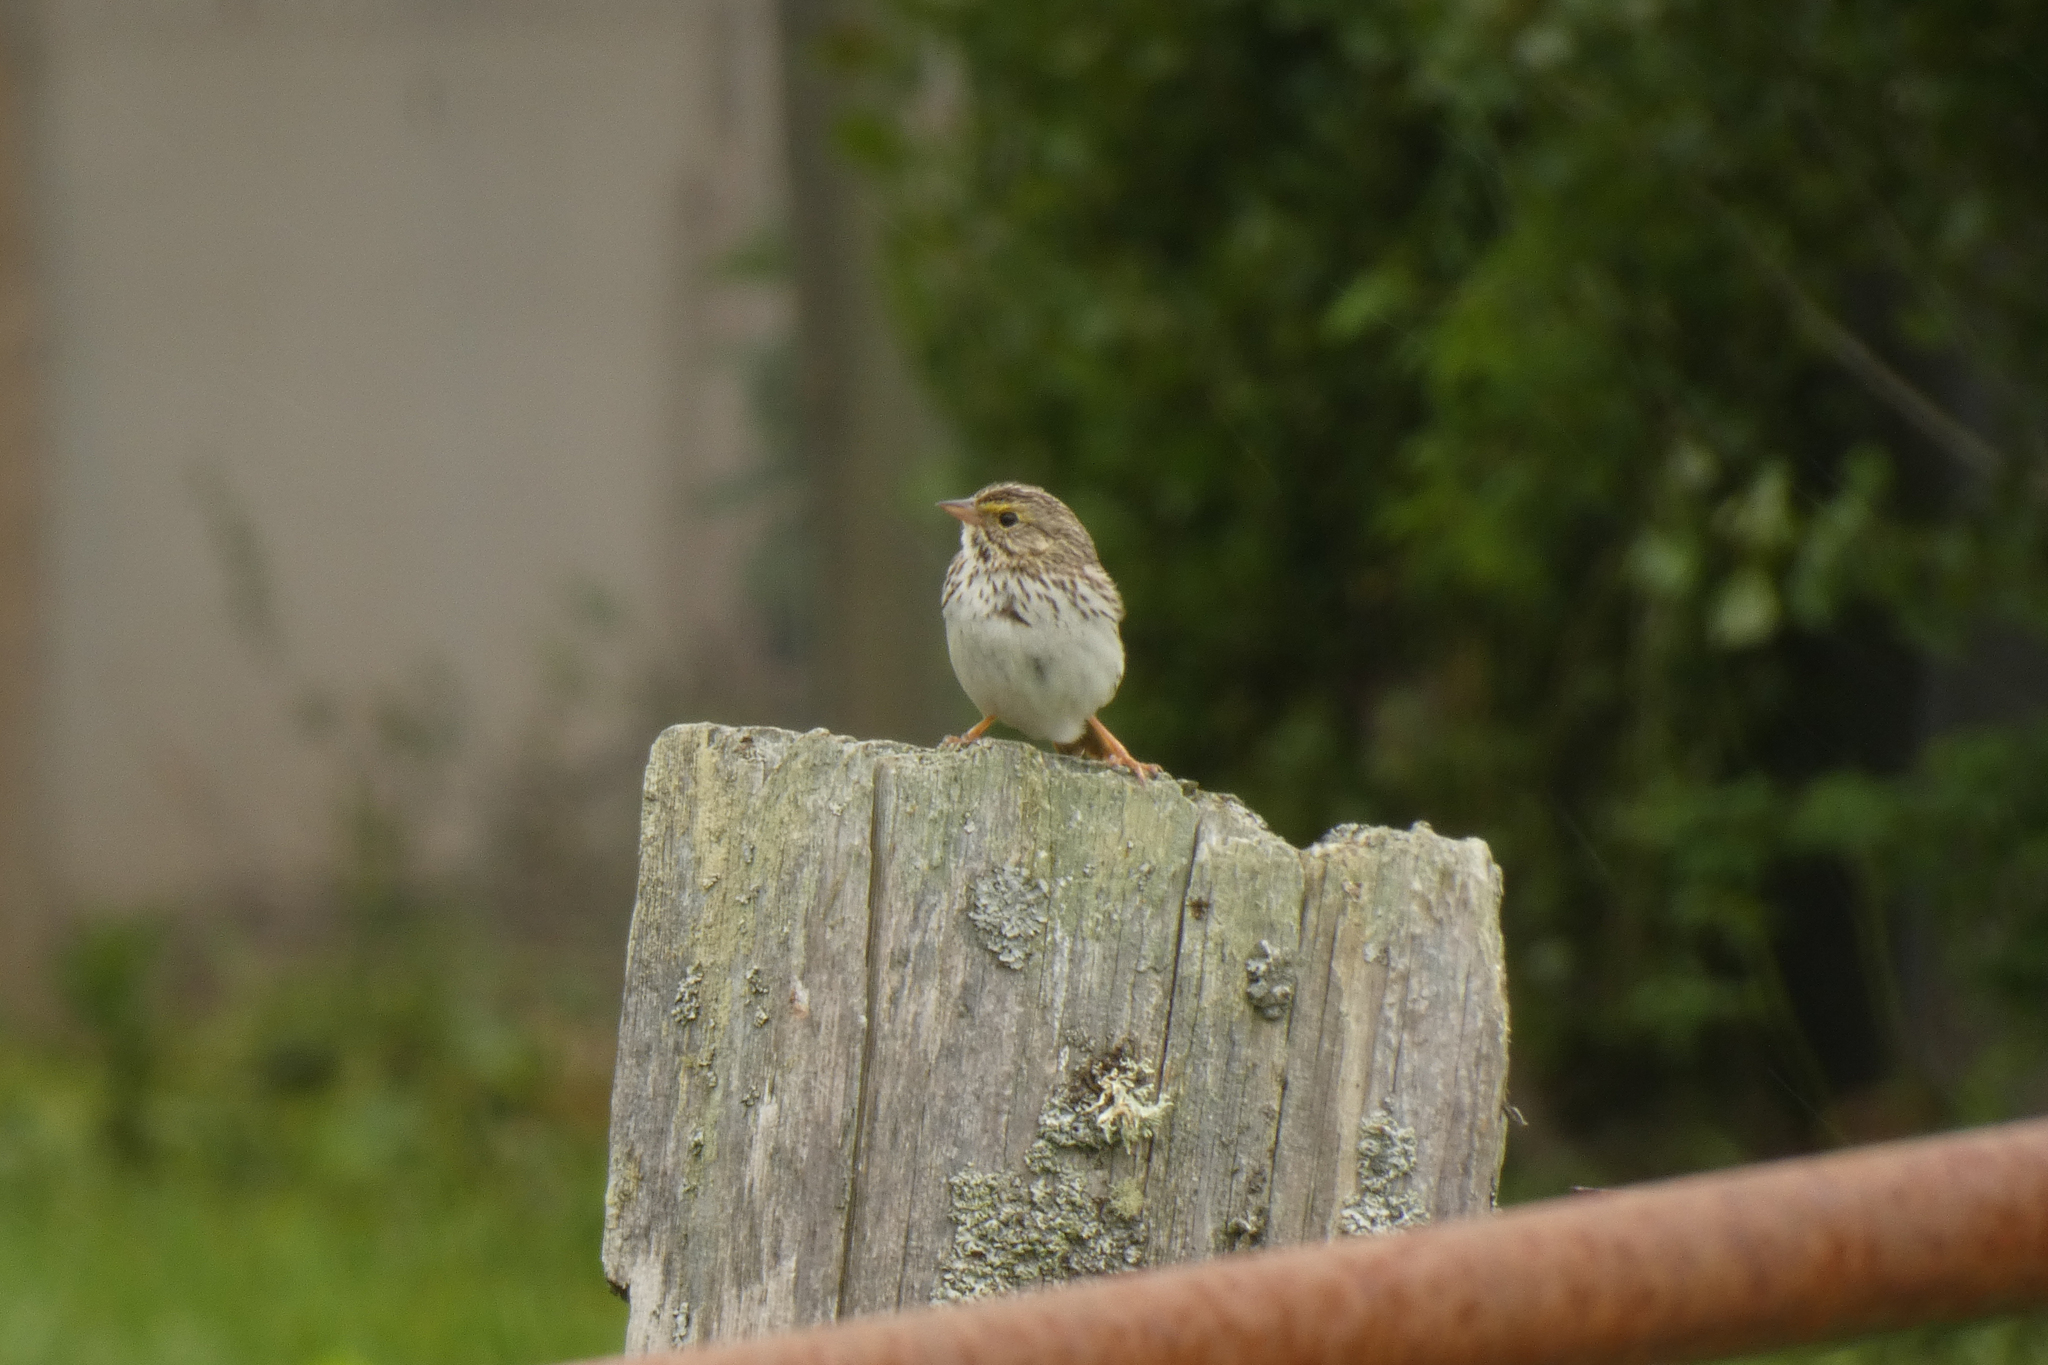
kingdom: Animalia
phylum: Chordata
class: Aves
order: Passeriformes
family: Passerellidae
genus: Passerculus
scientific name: Passerculus sandwichensis
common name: Savannah sparrow
